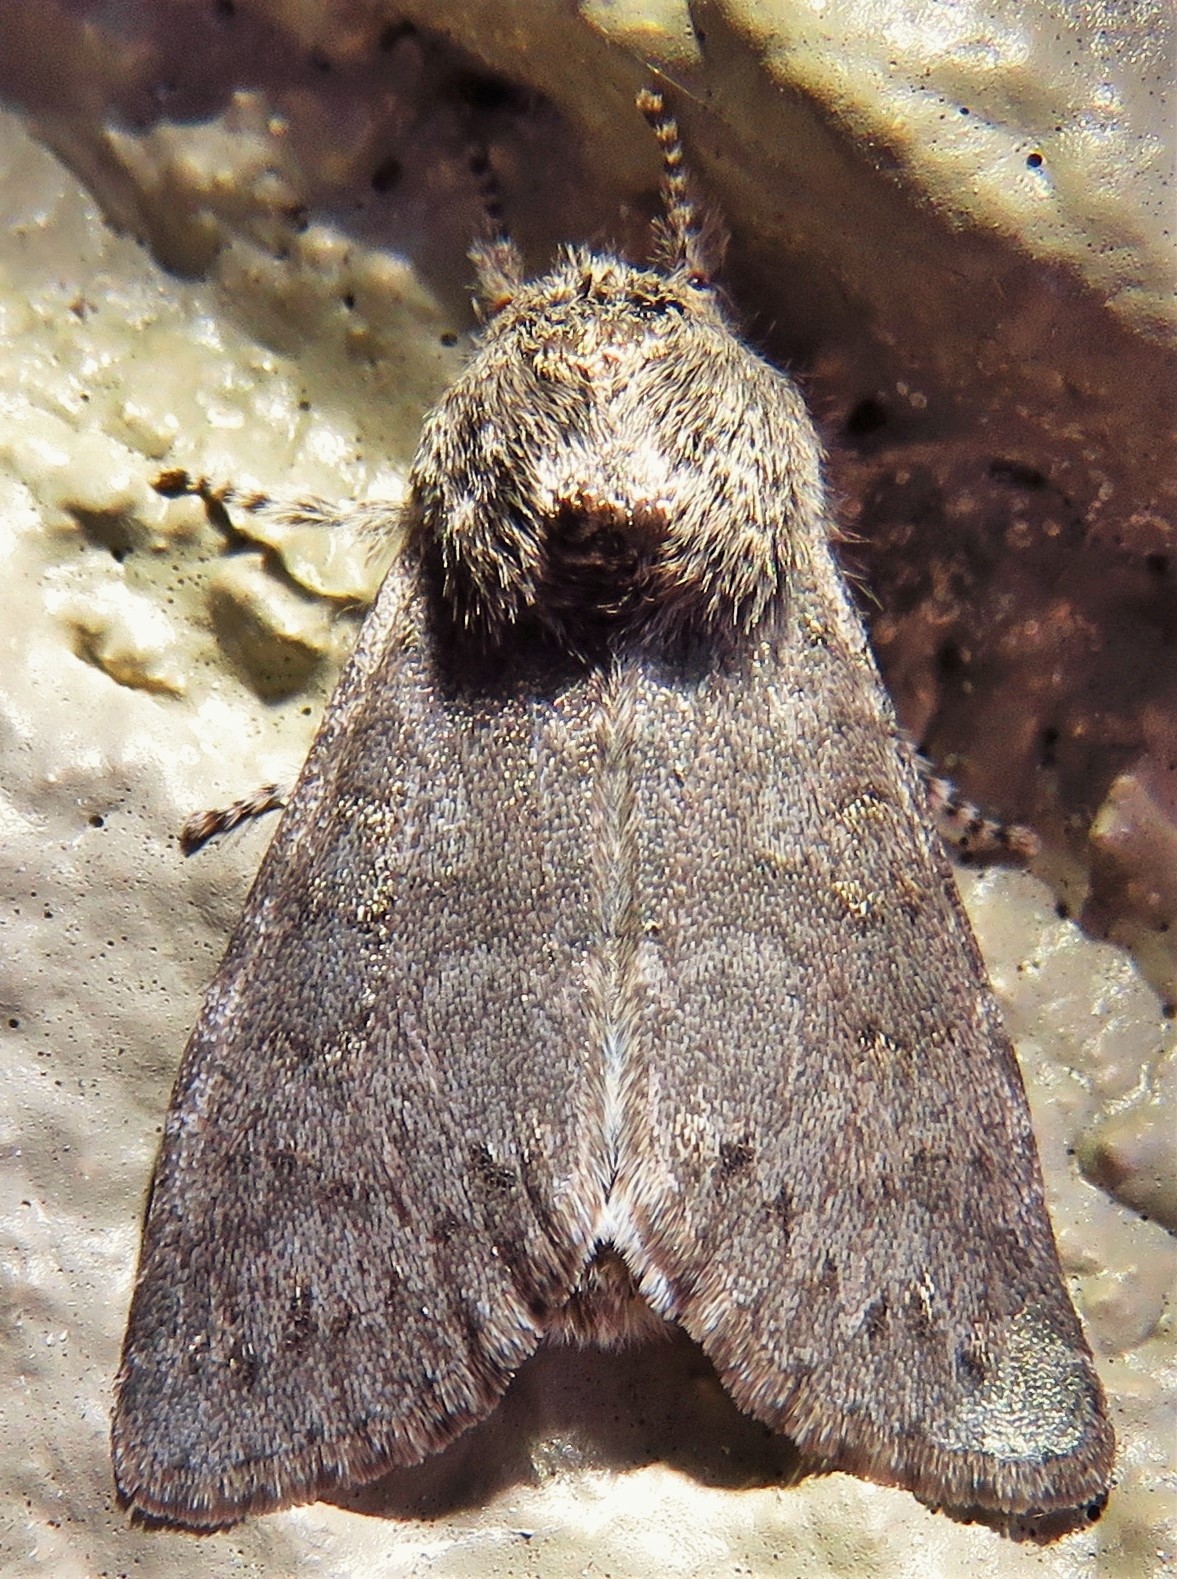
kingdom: Animalia
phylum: Arthropoda
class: Insecta
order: Lepidoptera
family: Noctuidae
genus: Psaphida
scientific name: Psaphida rolandi
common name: Roland's sallow
